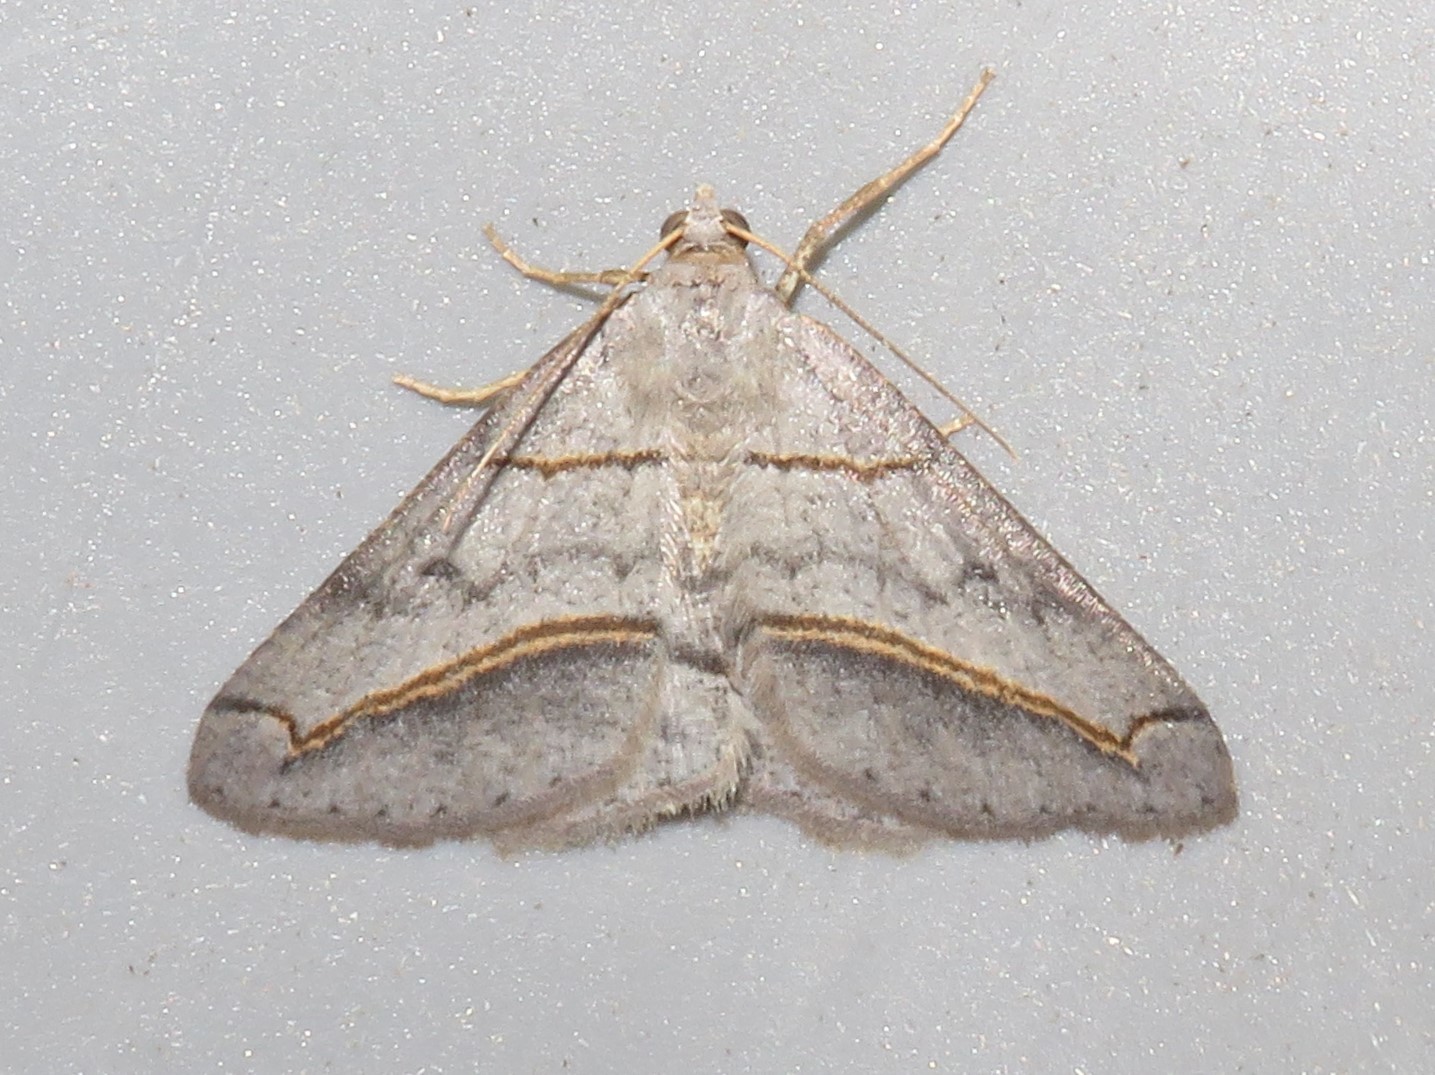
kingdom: Animalia
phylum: Arthropoda
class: Insecta
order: Lepidoptera
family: Geometridae
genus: Digrammia
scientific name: Digrammia mellistrigata
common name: Yellow-lined angle
